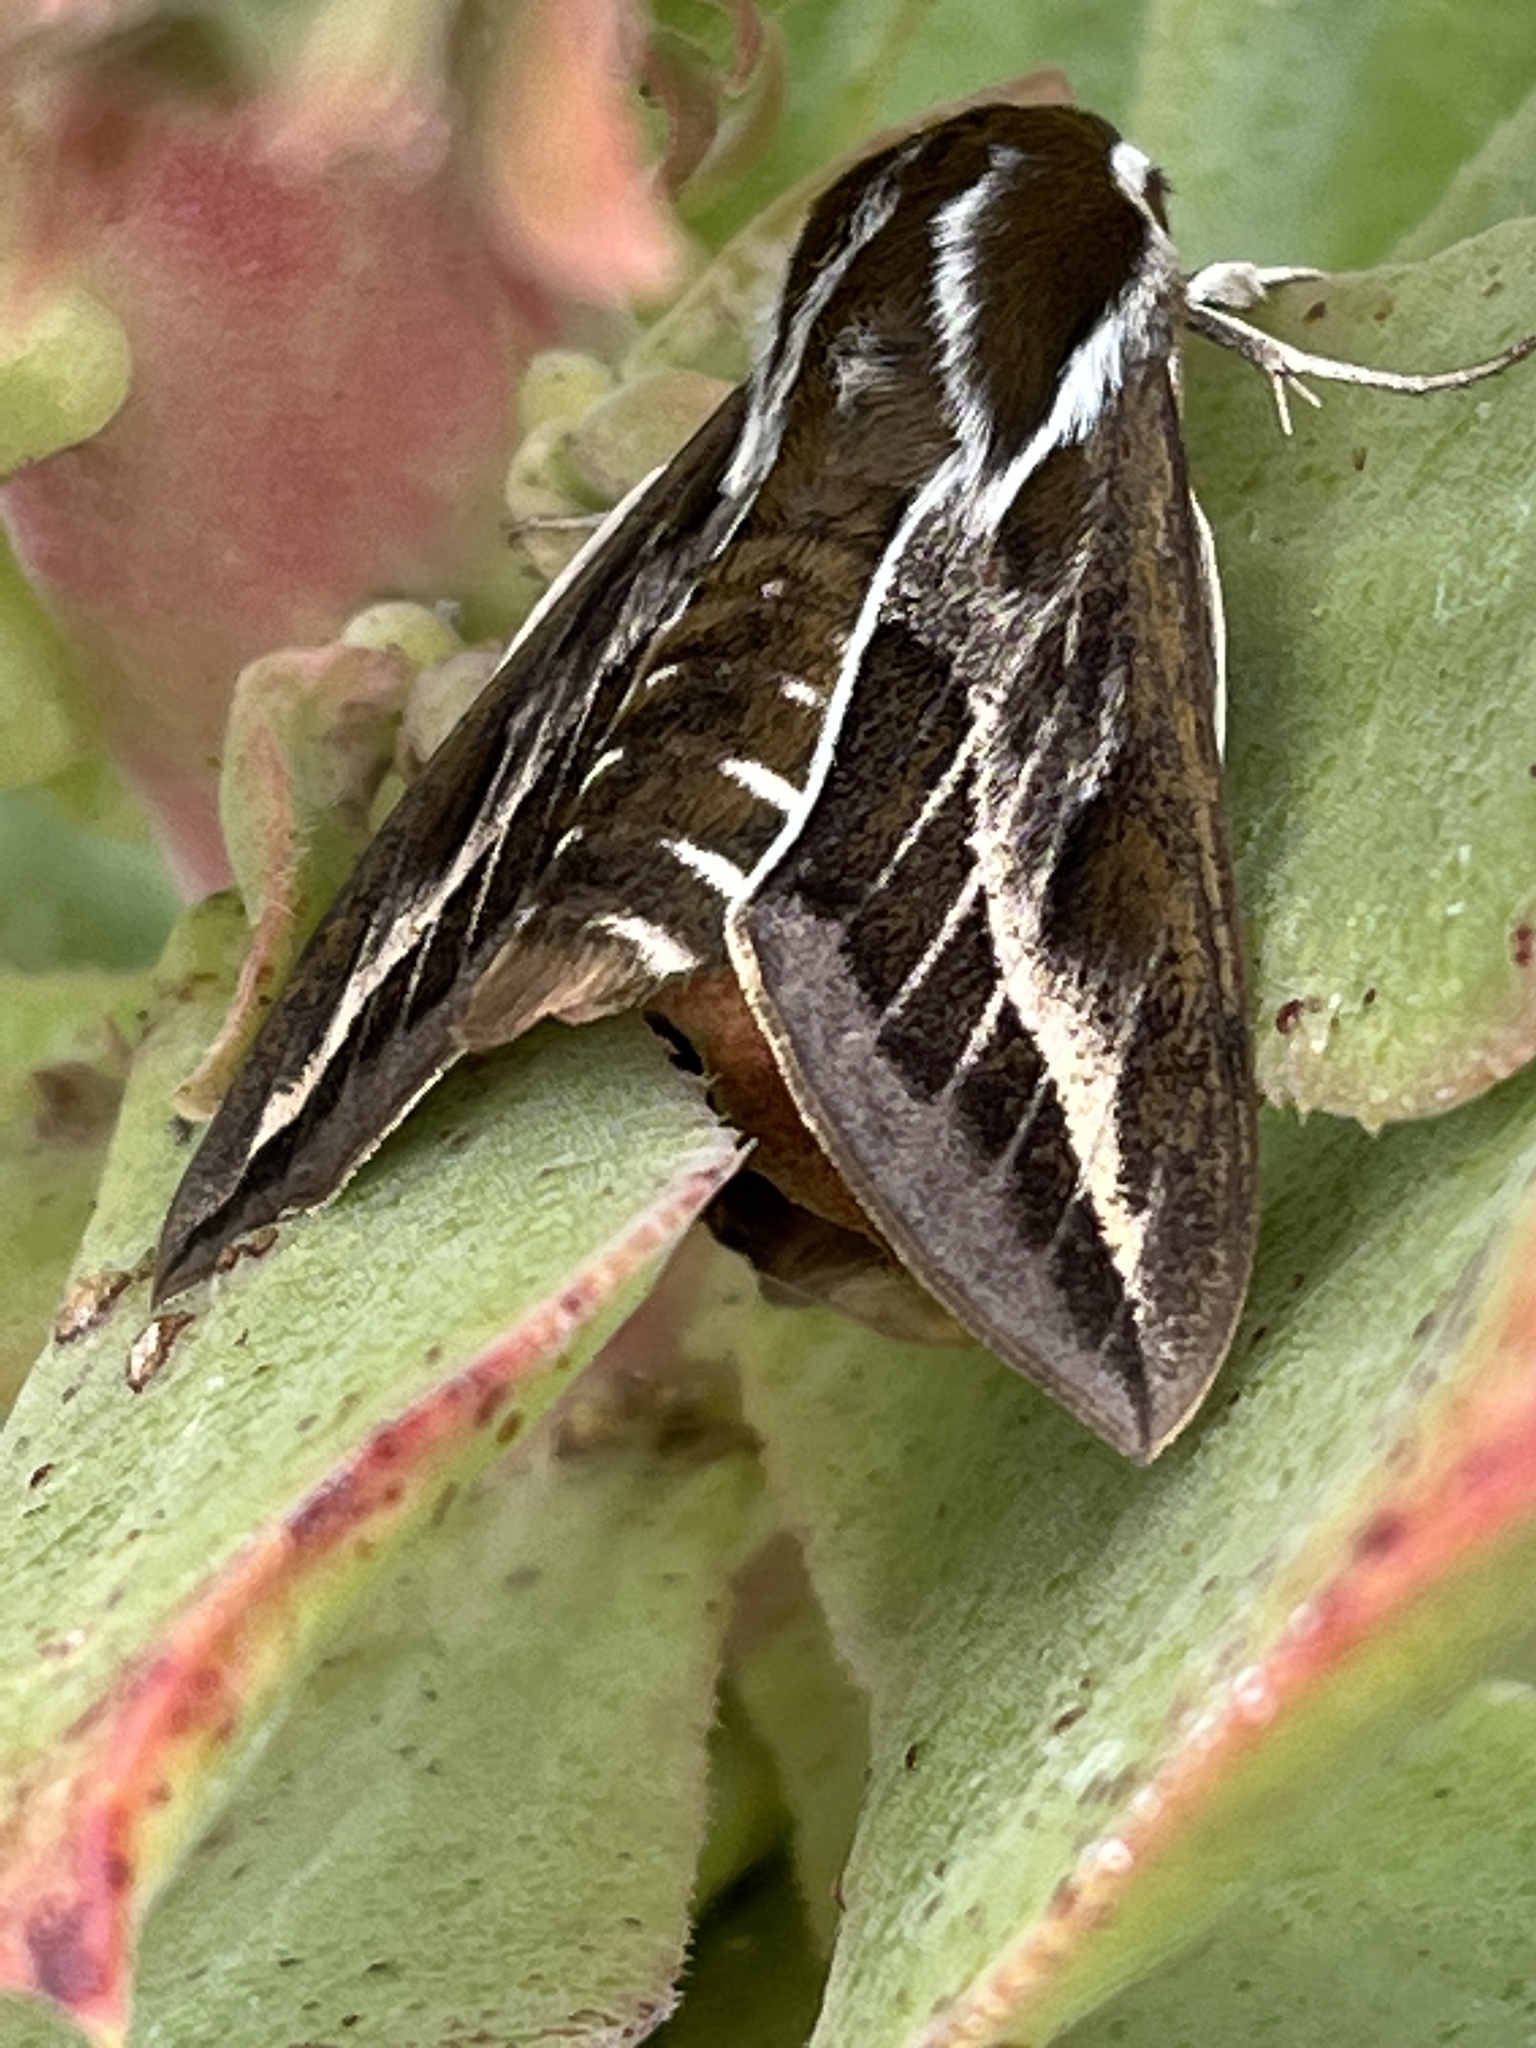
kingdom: Animalia
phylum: Arthropoda
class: Insecta
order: Lepidoptera
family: Sphingidae
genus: Hyles
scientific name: Hyles tithymali
